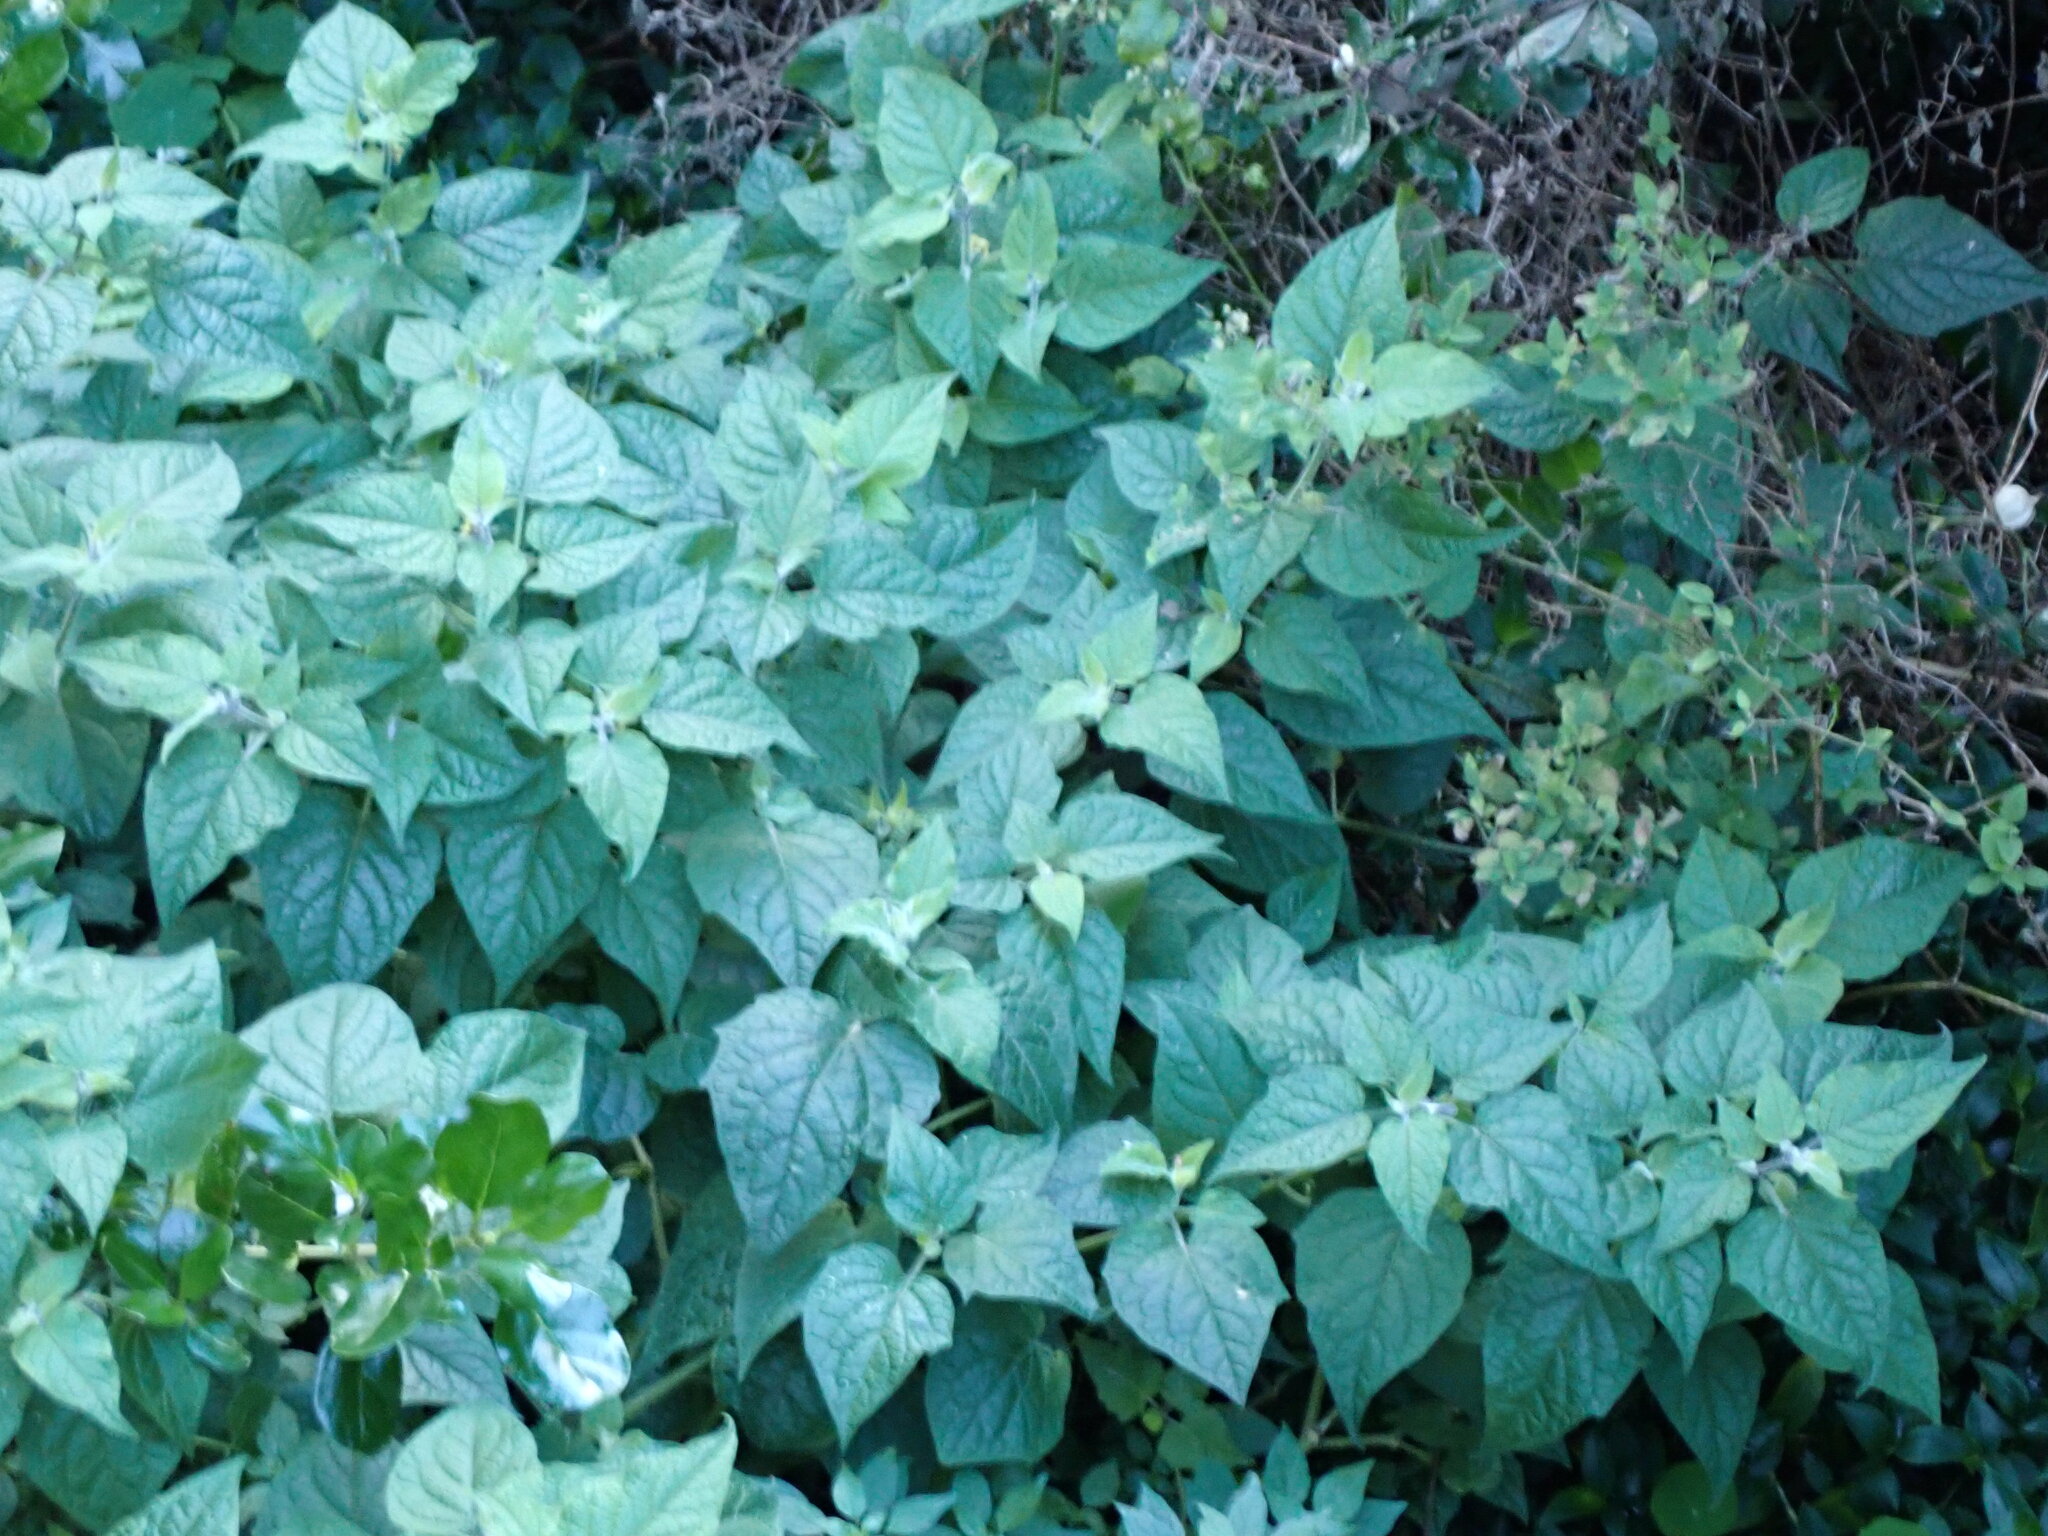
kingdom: Plantae
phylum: Tracheophyta
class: Magnoliopsida
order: Solanales
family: Solanaceae
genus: Physalis
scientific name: Physalis peruviana
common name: Cape-gooseberry
